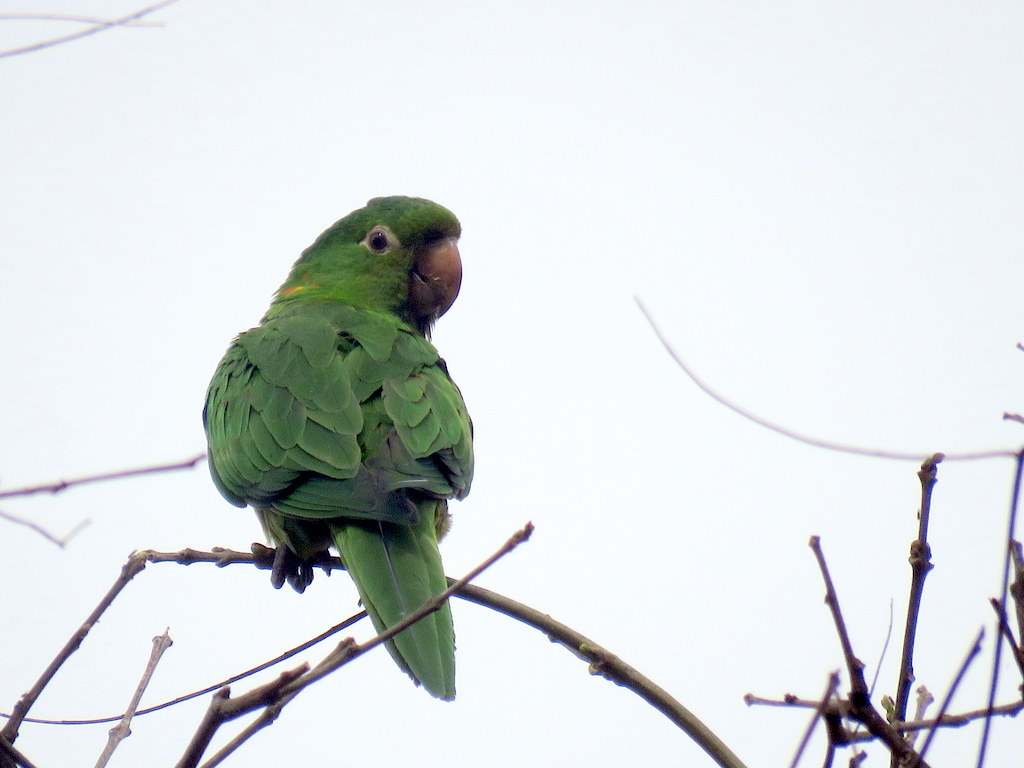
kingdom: Animalia
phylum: Chordata
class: Aves
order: Psittaciformes
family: Psittacidae
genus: Aratinga
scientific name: Aratinga leucophthalma
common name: White-eyed parakeet
